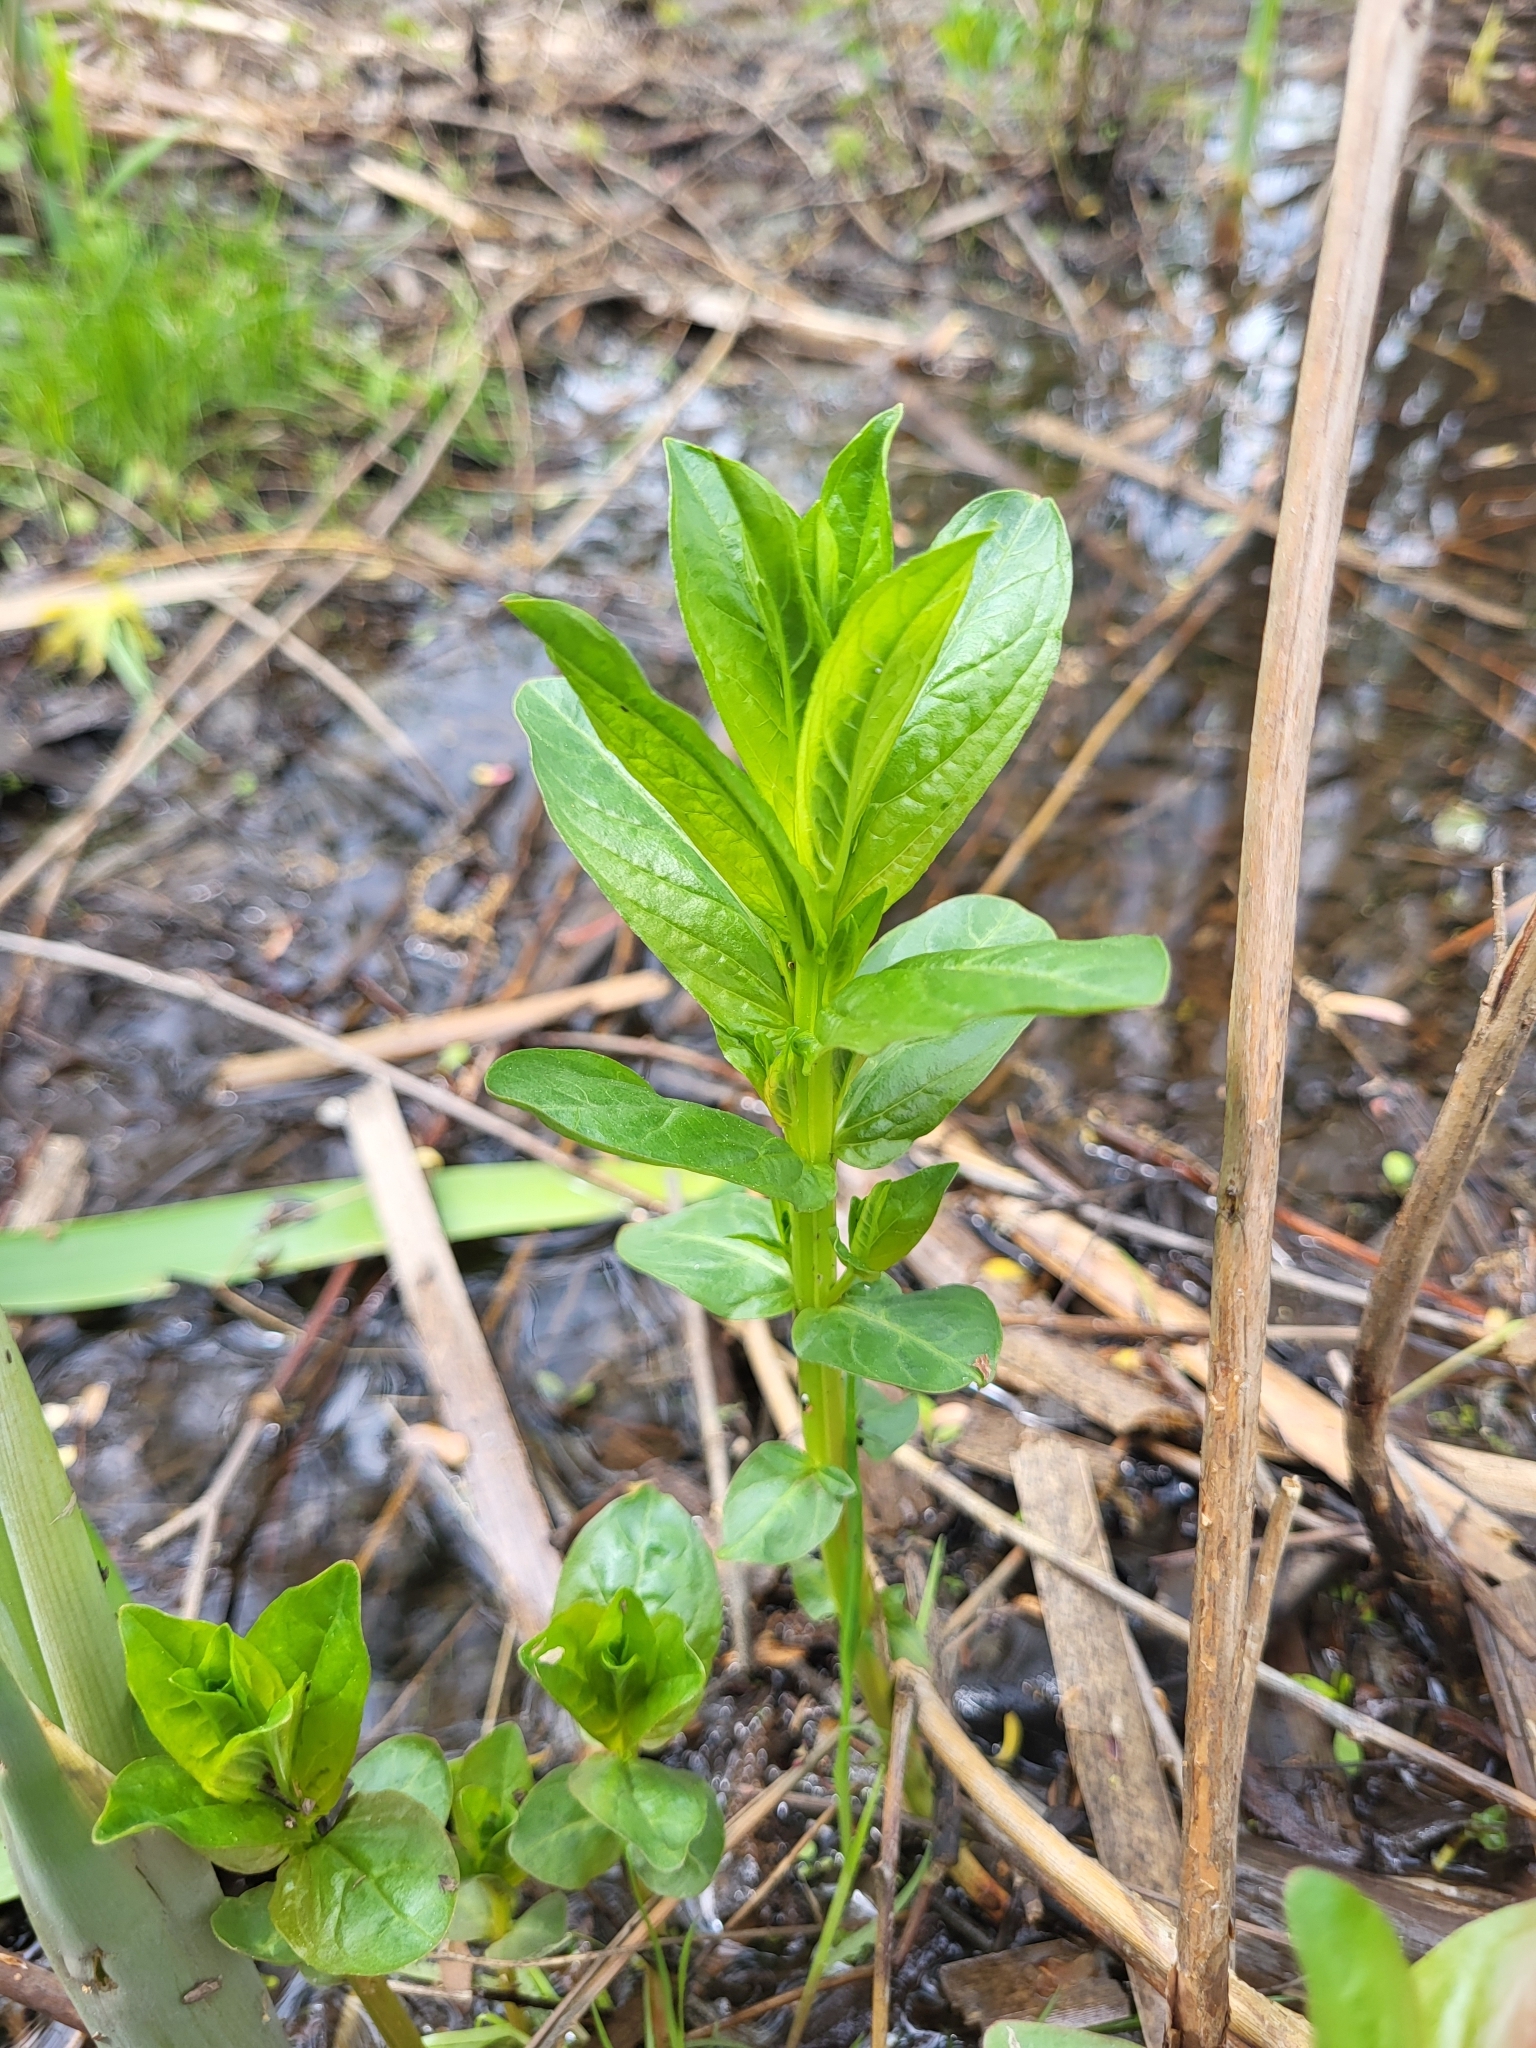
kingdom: Plantae
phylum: Tracheophyta
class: Magnoliopsida
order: Myrtales
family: Lythraceae
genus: Lythrum
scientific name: Lythrum salicaria
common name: Purple loosestrife
